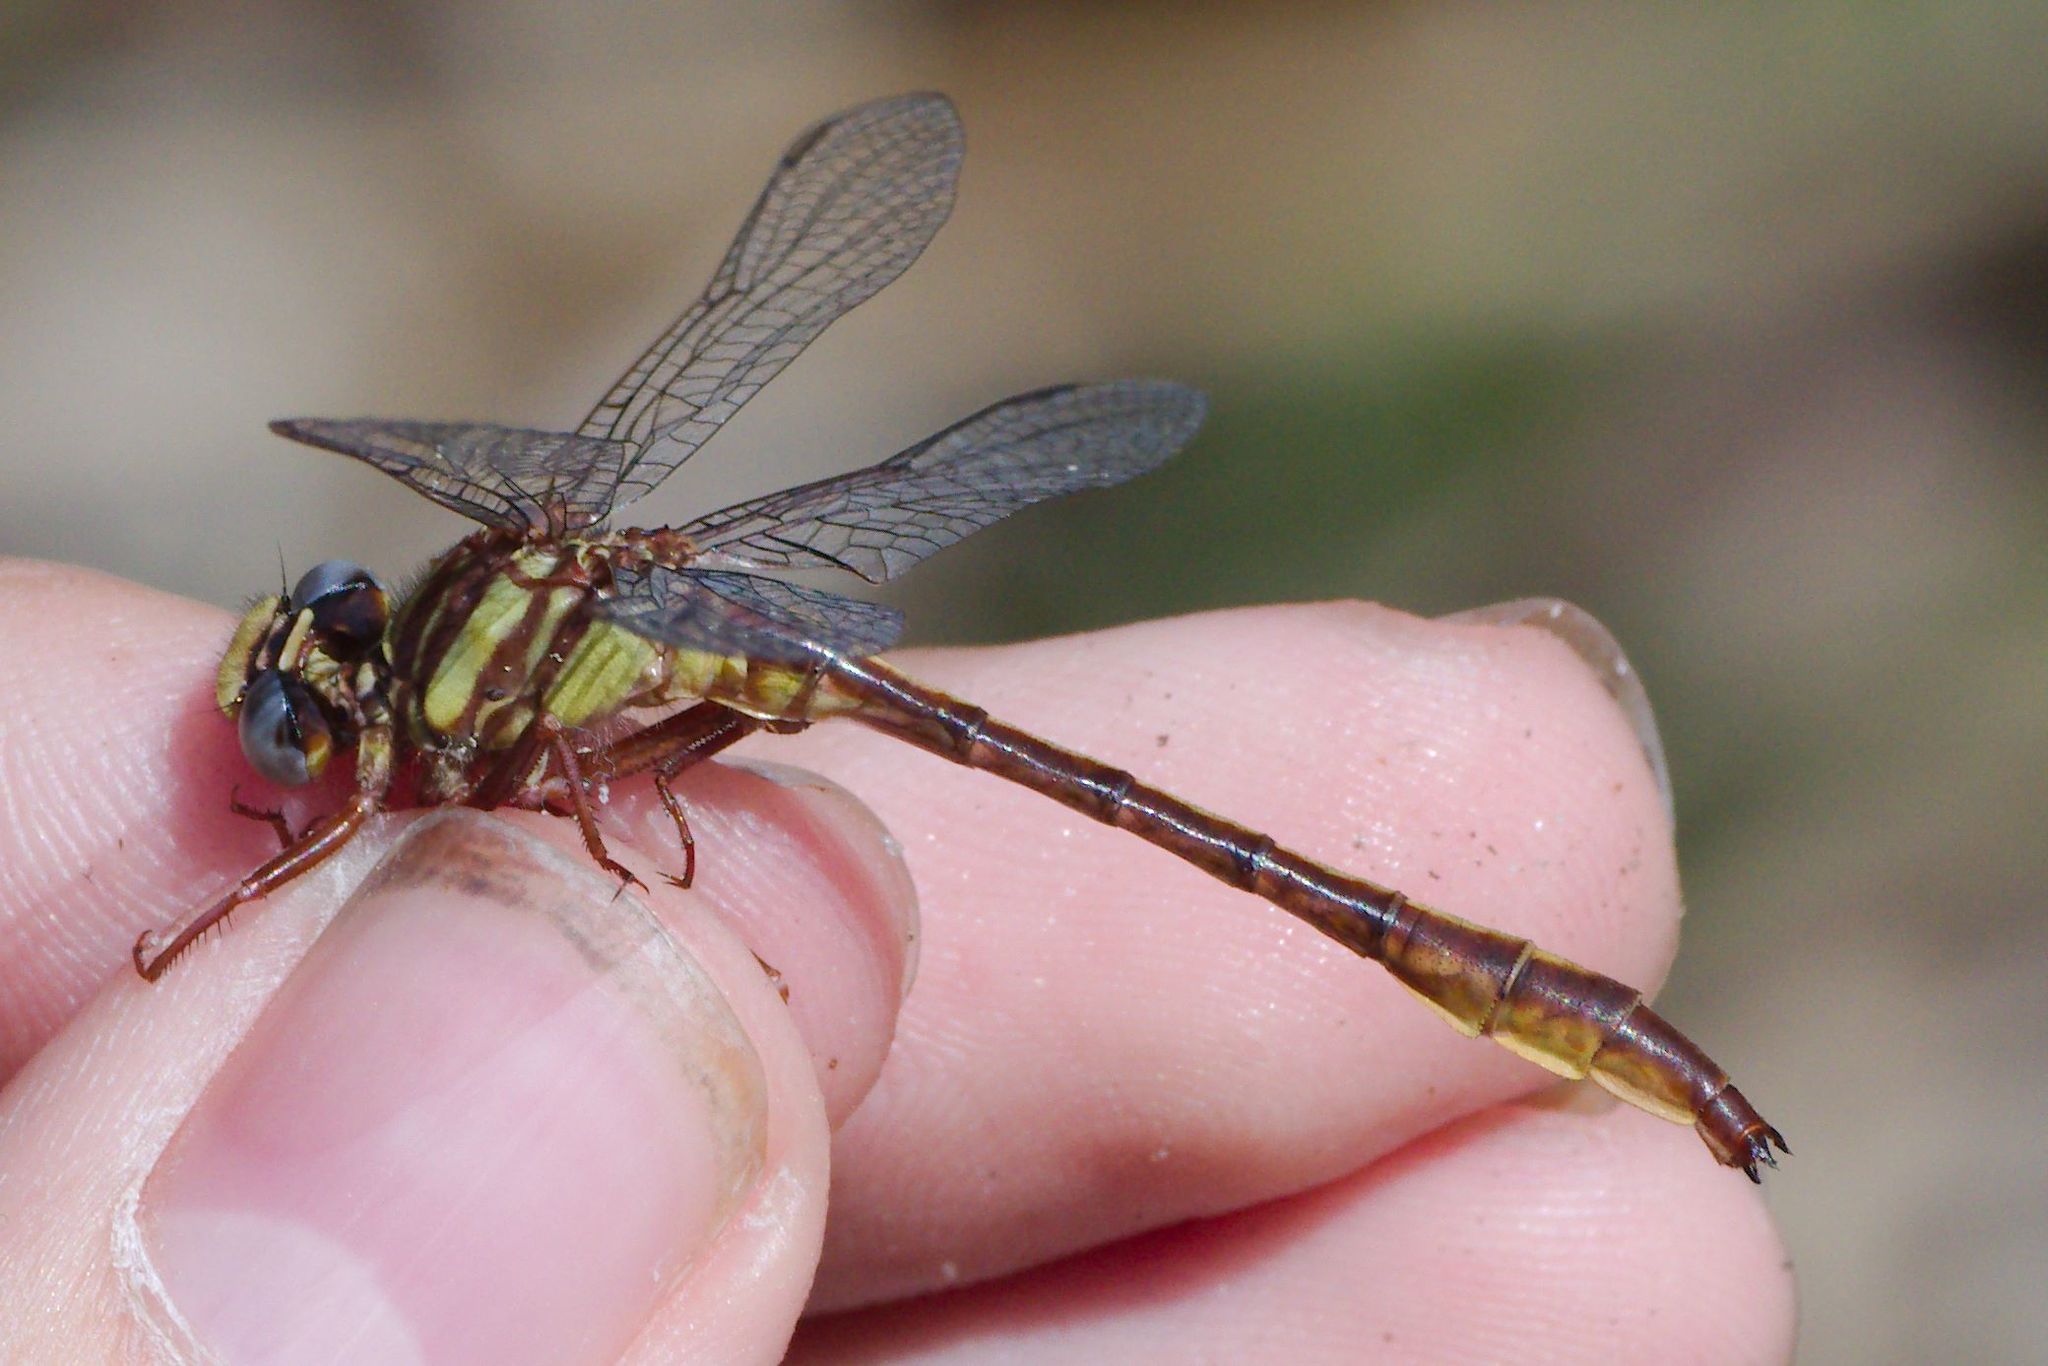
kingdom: Animalia
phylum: Arthropoda
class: Insecta
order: Odonata
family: Gomphidae
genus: Phanogomphus
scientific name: Phanogomphus cavillaris
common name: Sandhill clubtail
